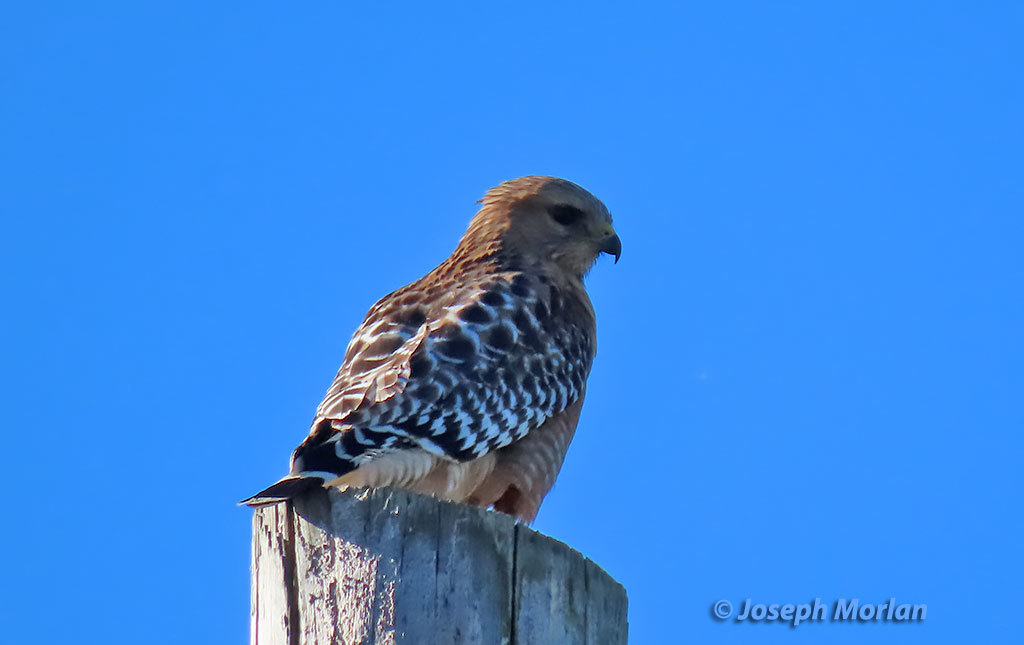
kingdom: Animalia
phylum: Chordata
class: Aves
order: Accipitriformes
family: Accipitridae
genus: Buteo
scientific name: Buteo lineatus
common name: Red-shouldered hawk
